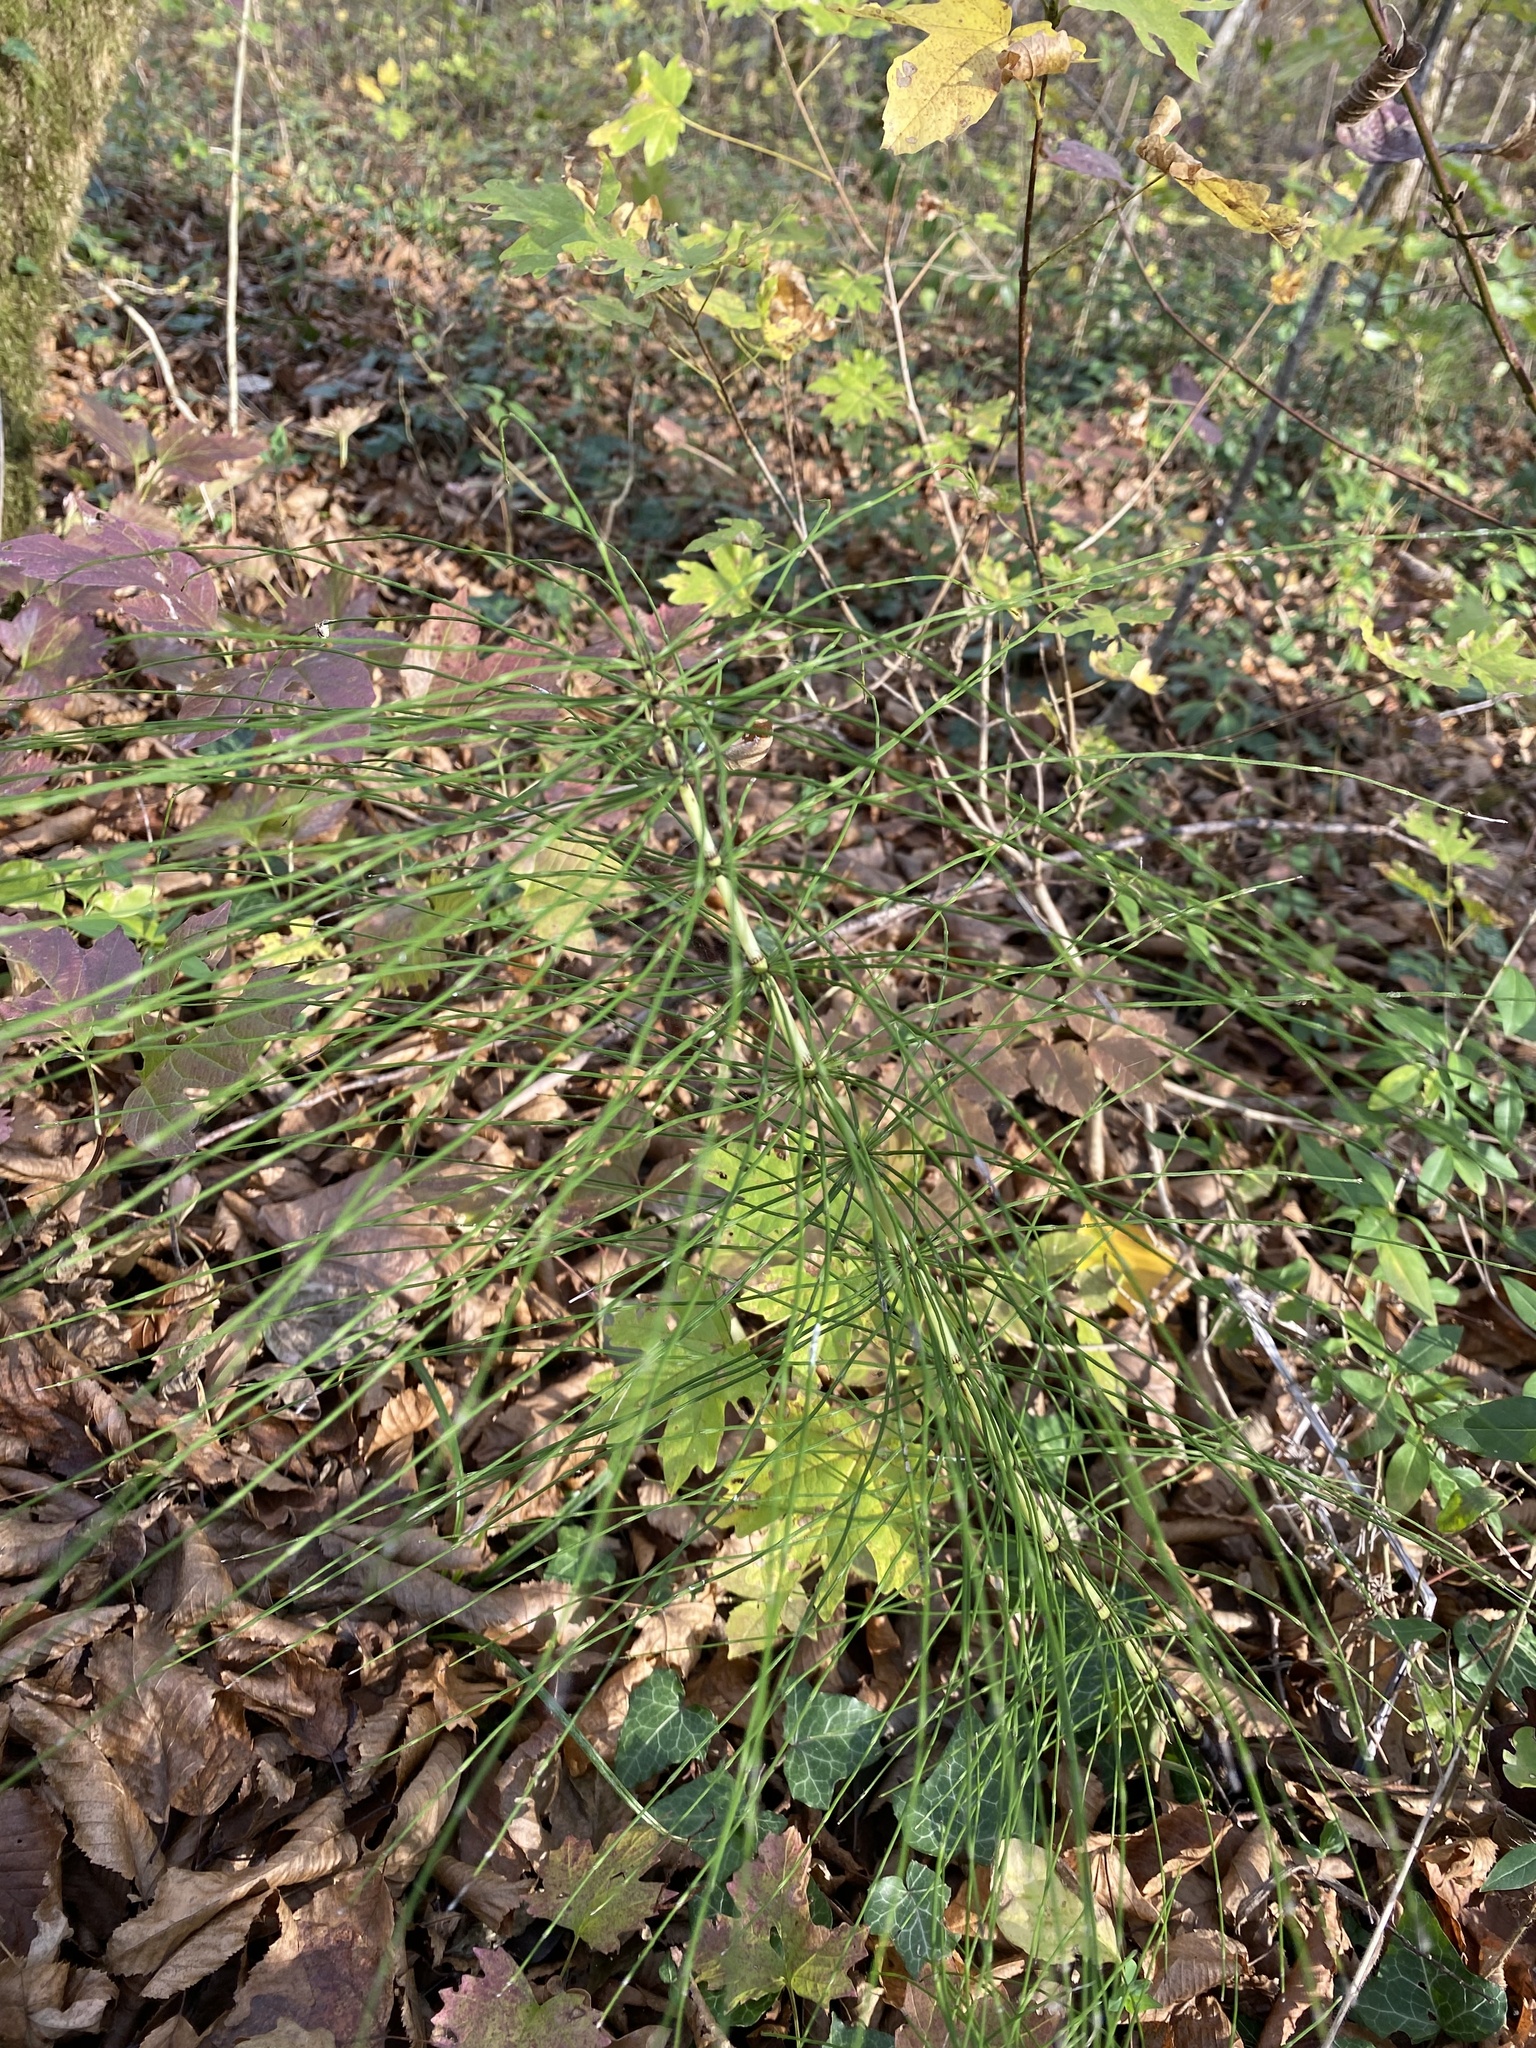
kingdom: Plantae
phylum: Tracheophyta
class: Polypodiopsida
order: Equisetales
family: Equisetaceae
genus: Equisetum
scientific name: Equisetum telmateia
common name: Great horsetail
